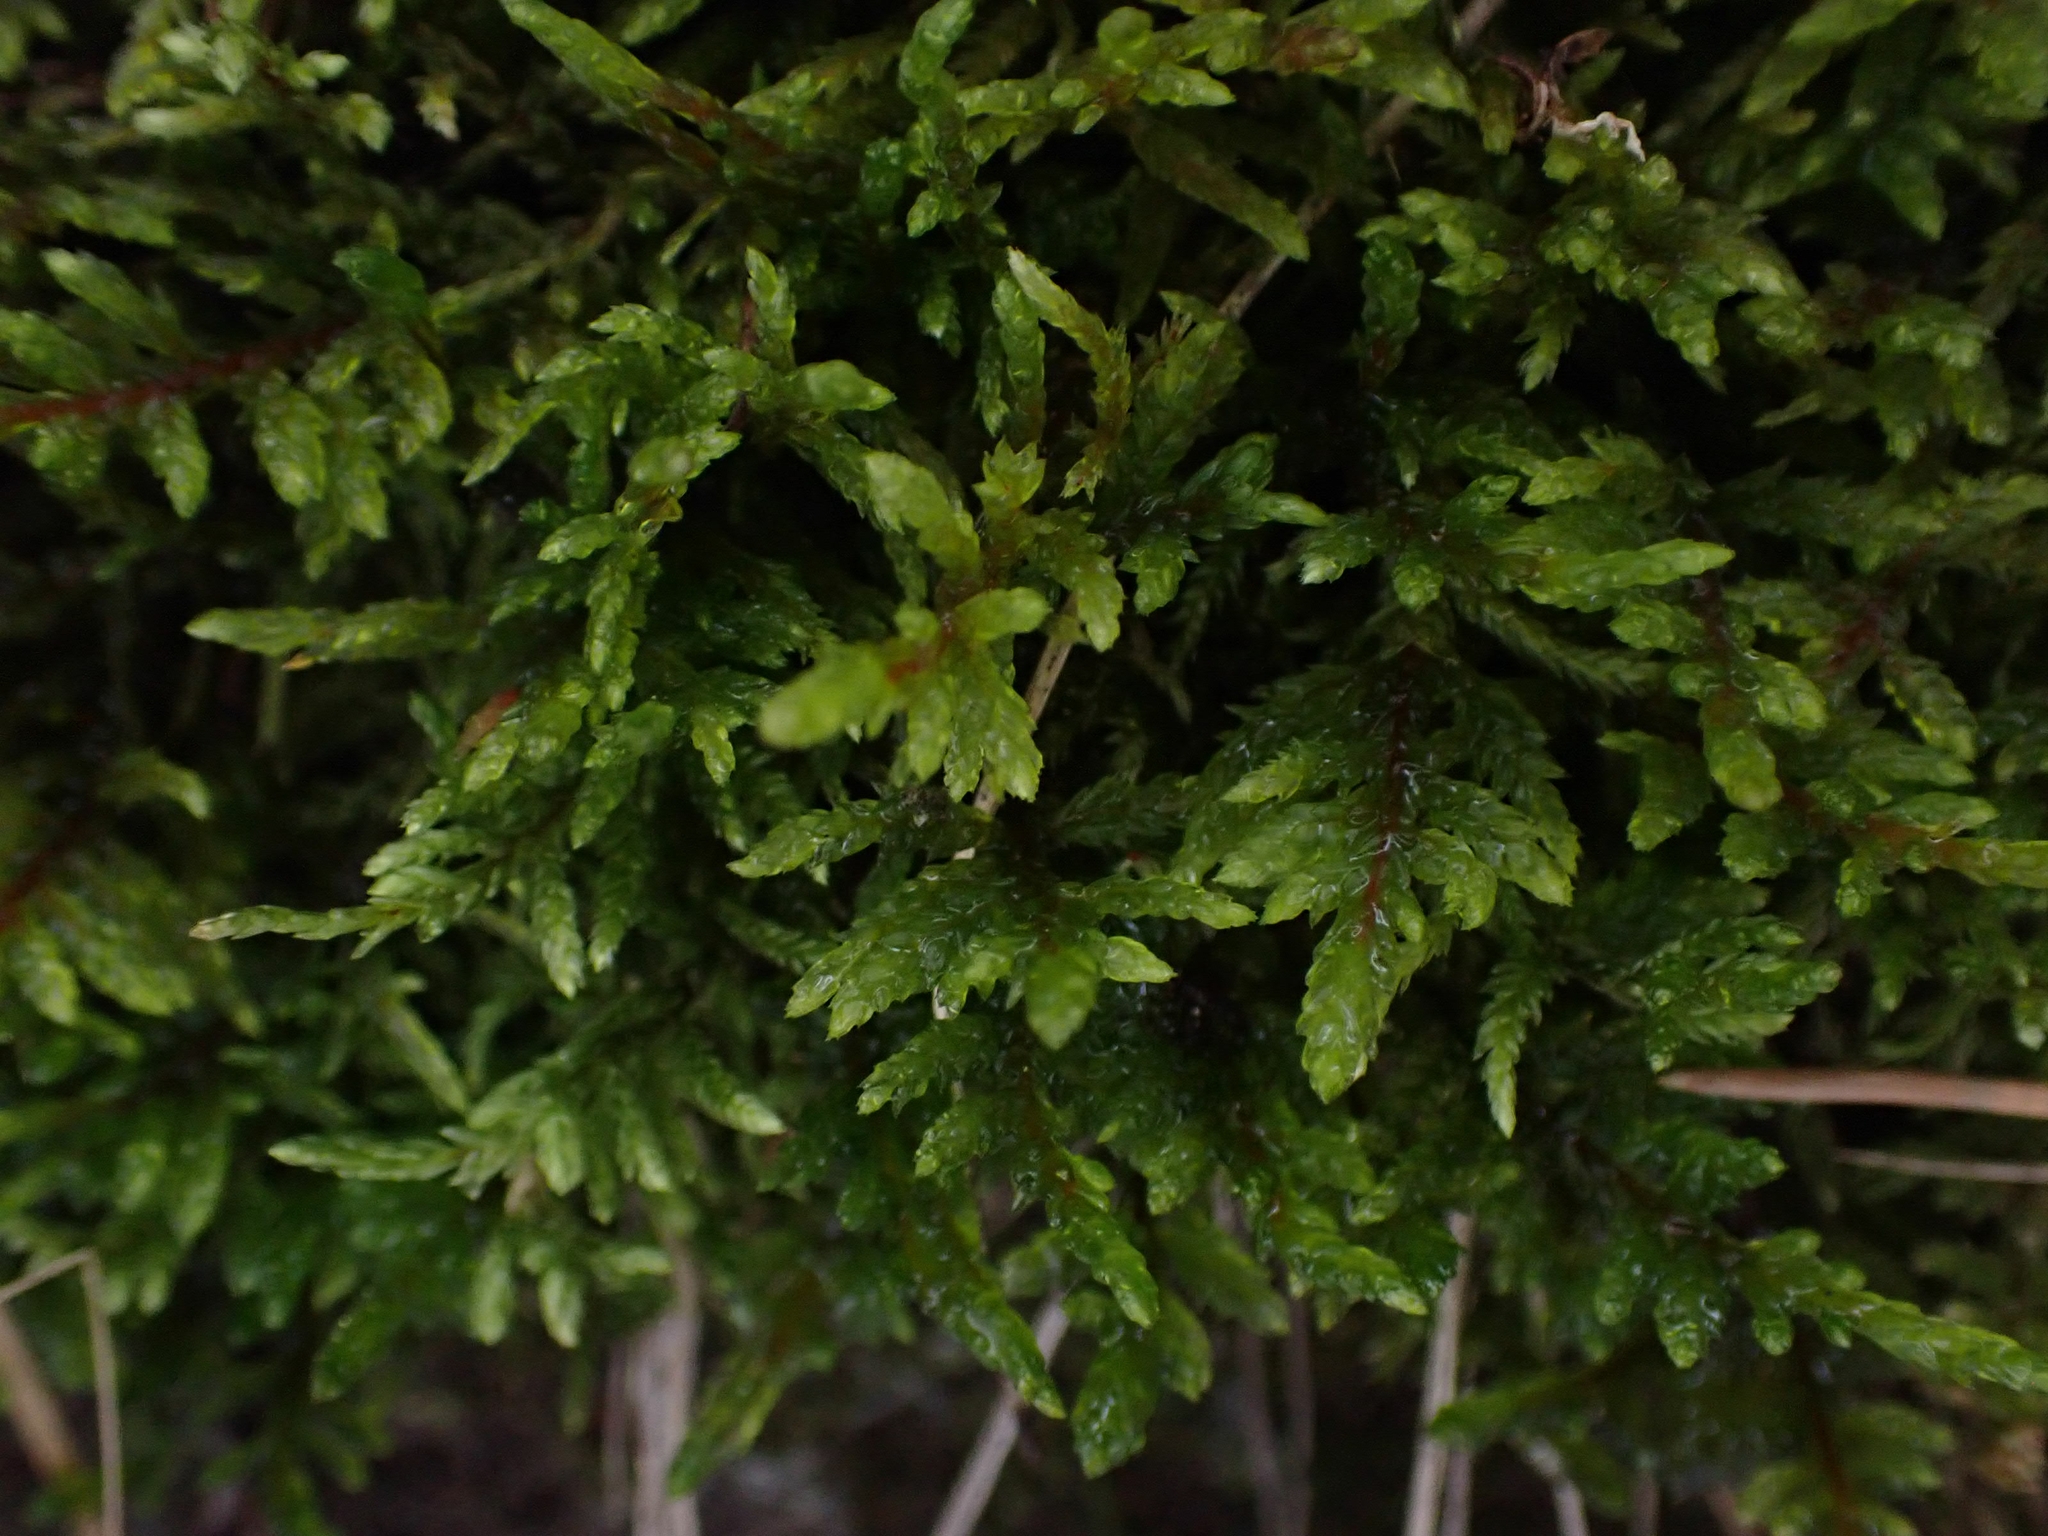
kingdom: Plantae
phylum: Bryophyta
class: Bryopsida
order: Hypnales
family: Hylocomiaceae
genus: Pleurozium
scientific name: Pleurozium schreberi
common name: Red-stemmed feather moss
